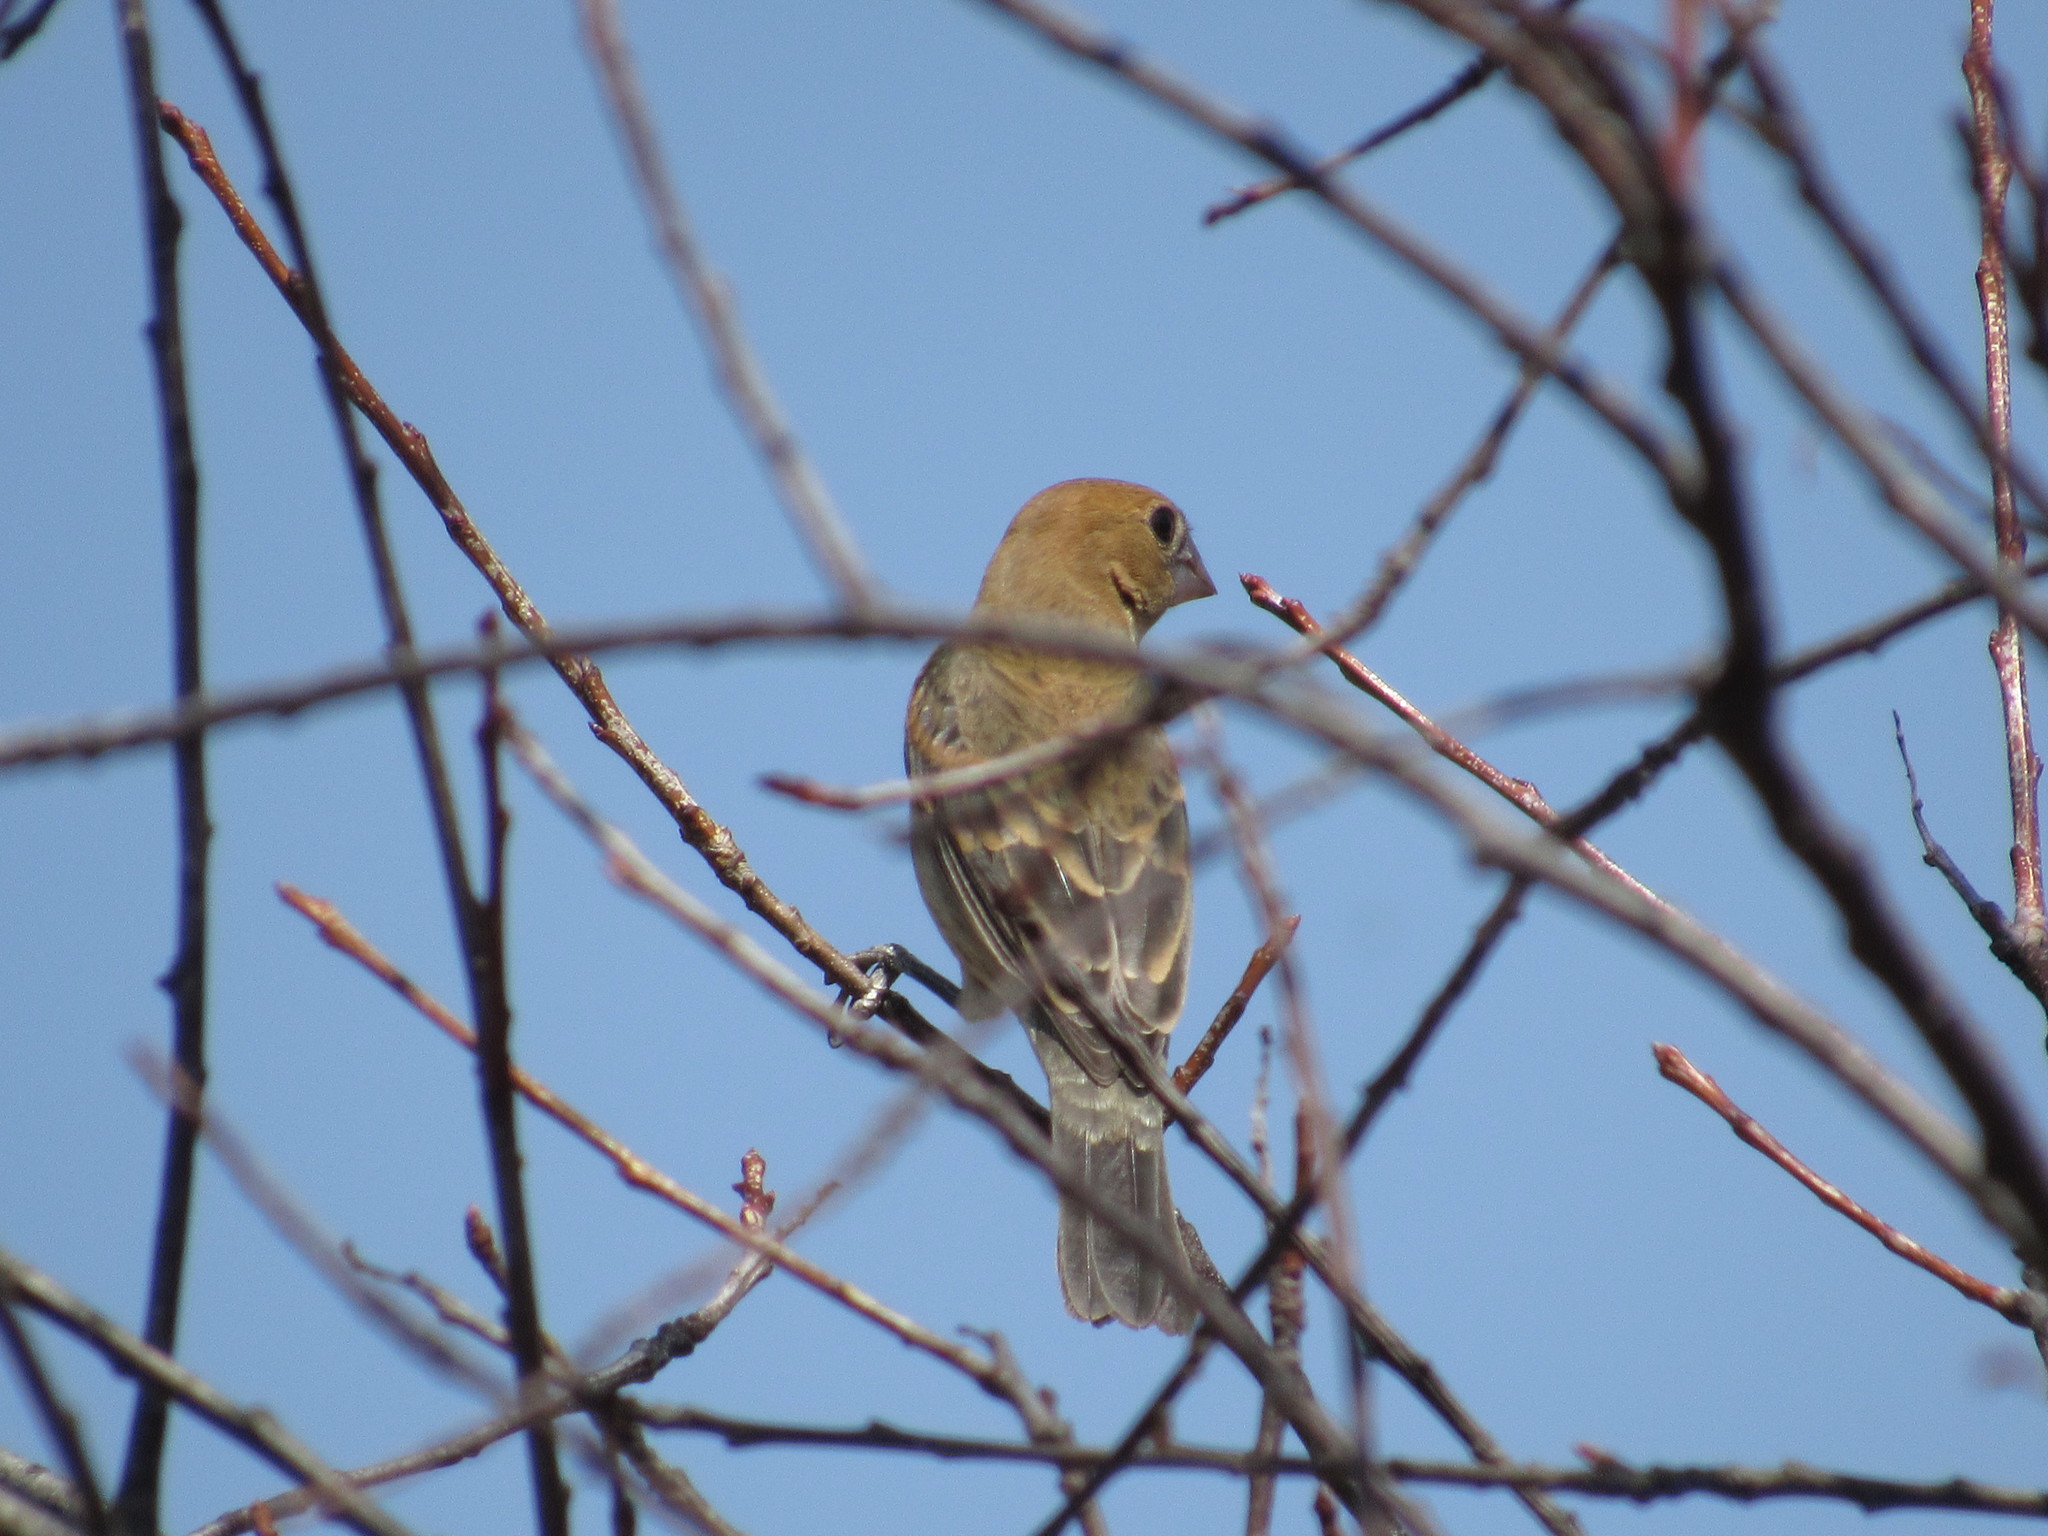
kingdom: Animalia
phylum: Chordata
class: Aves
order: Passeriformes
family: Cardinalidae
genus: Passerina
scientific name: Passerina caerulea
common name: Blue grosbeak
